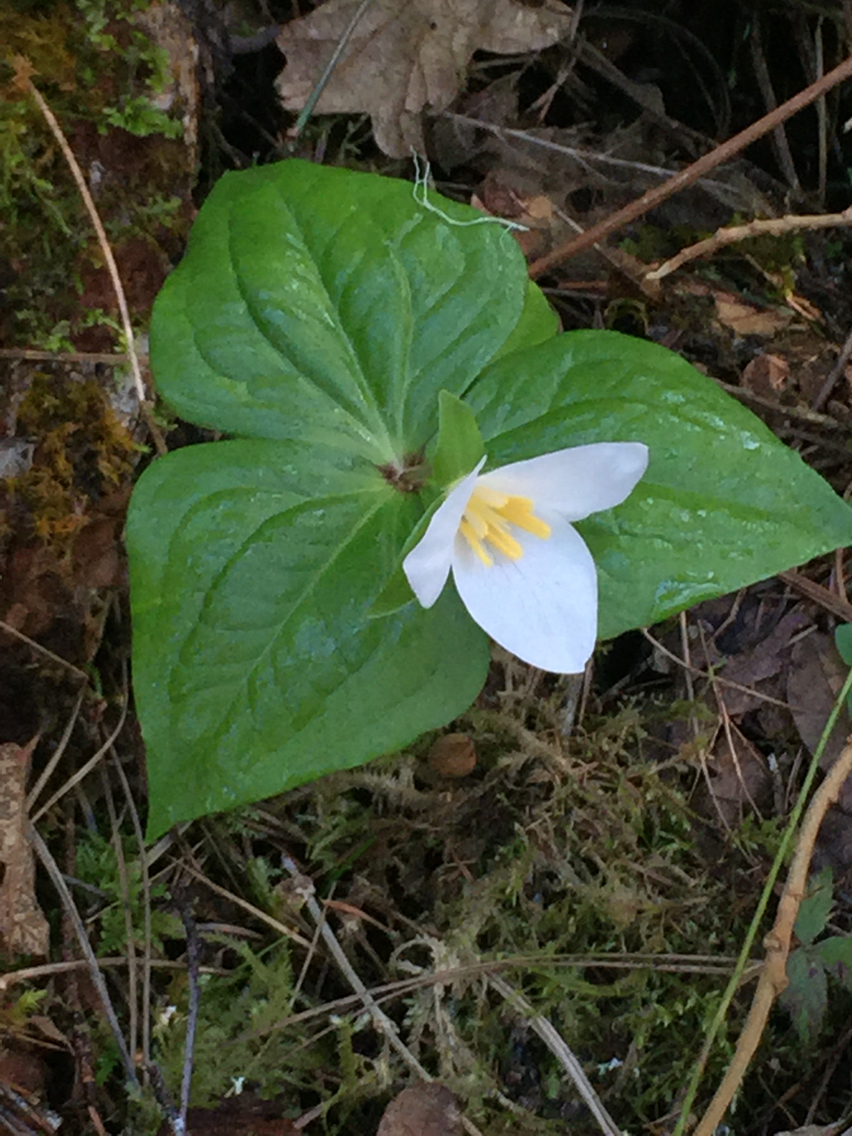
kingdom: Plantae
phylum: Tracheophyta
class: Liliopsida
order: Liliales
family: Melanthiaceae
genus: Trillium
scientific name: Trillium ovatum
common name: Pacific trillium
